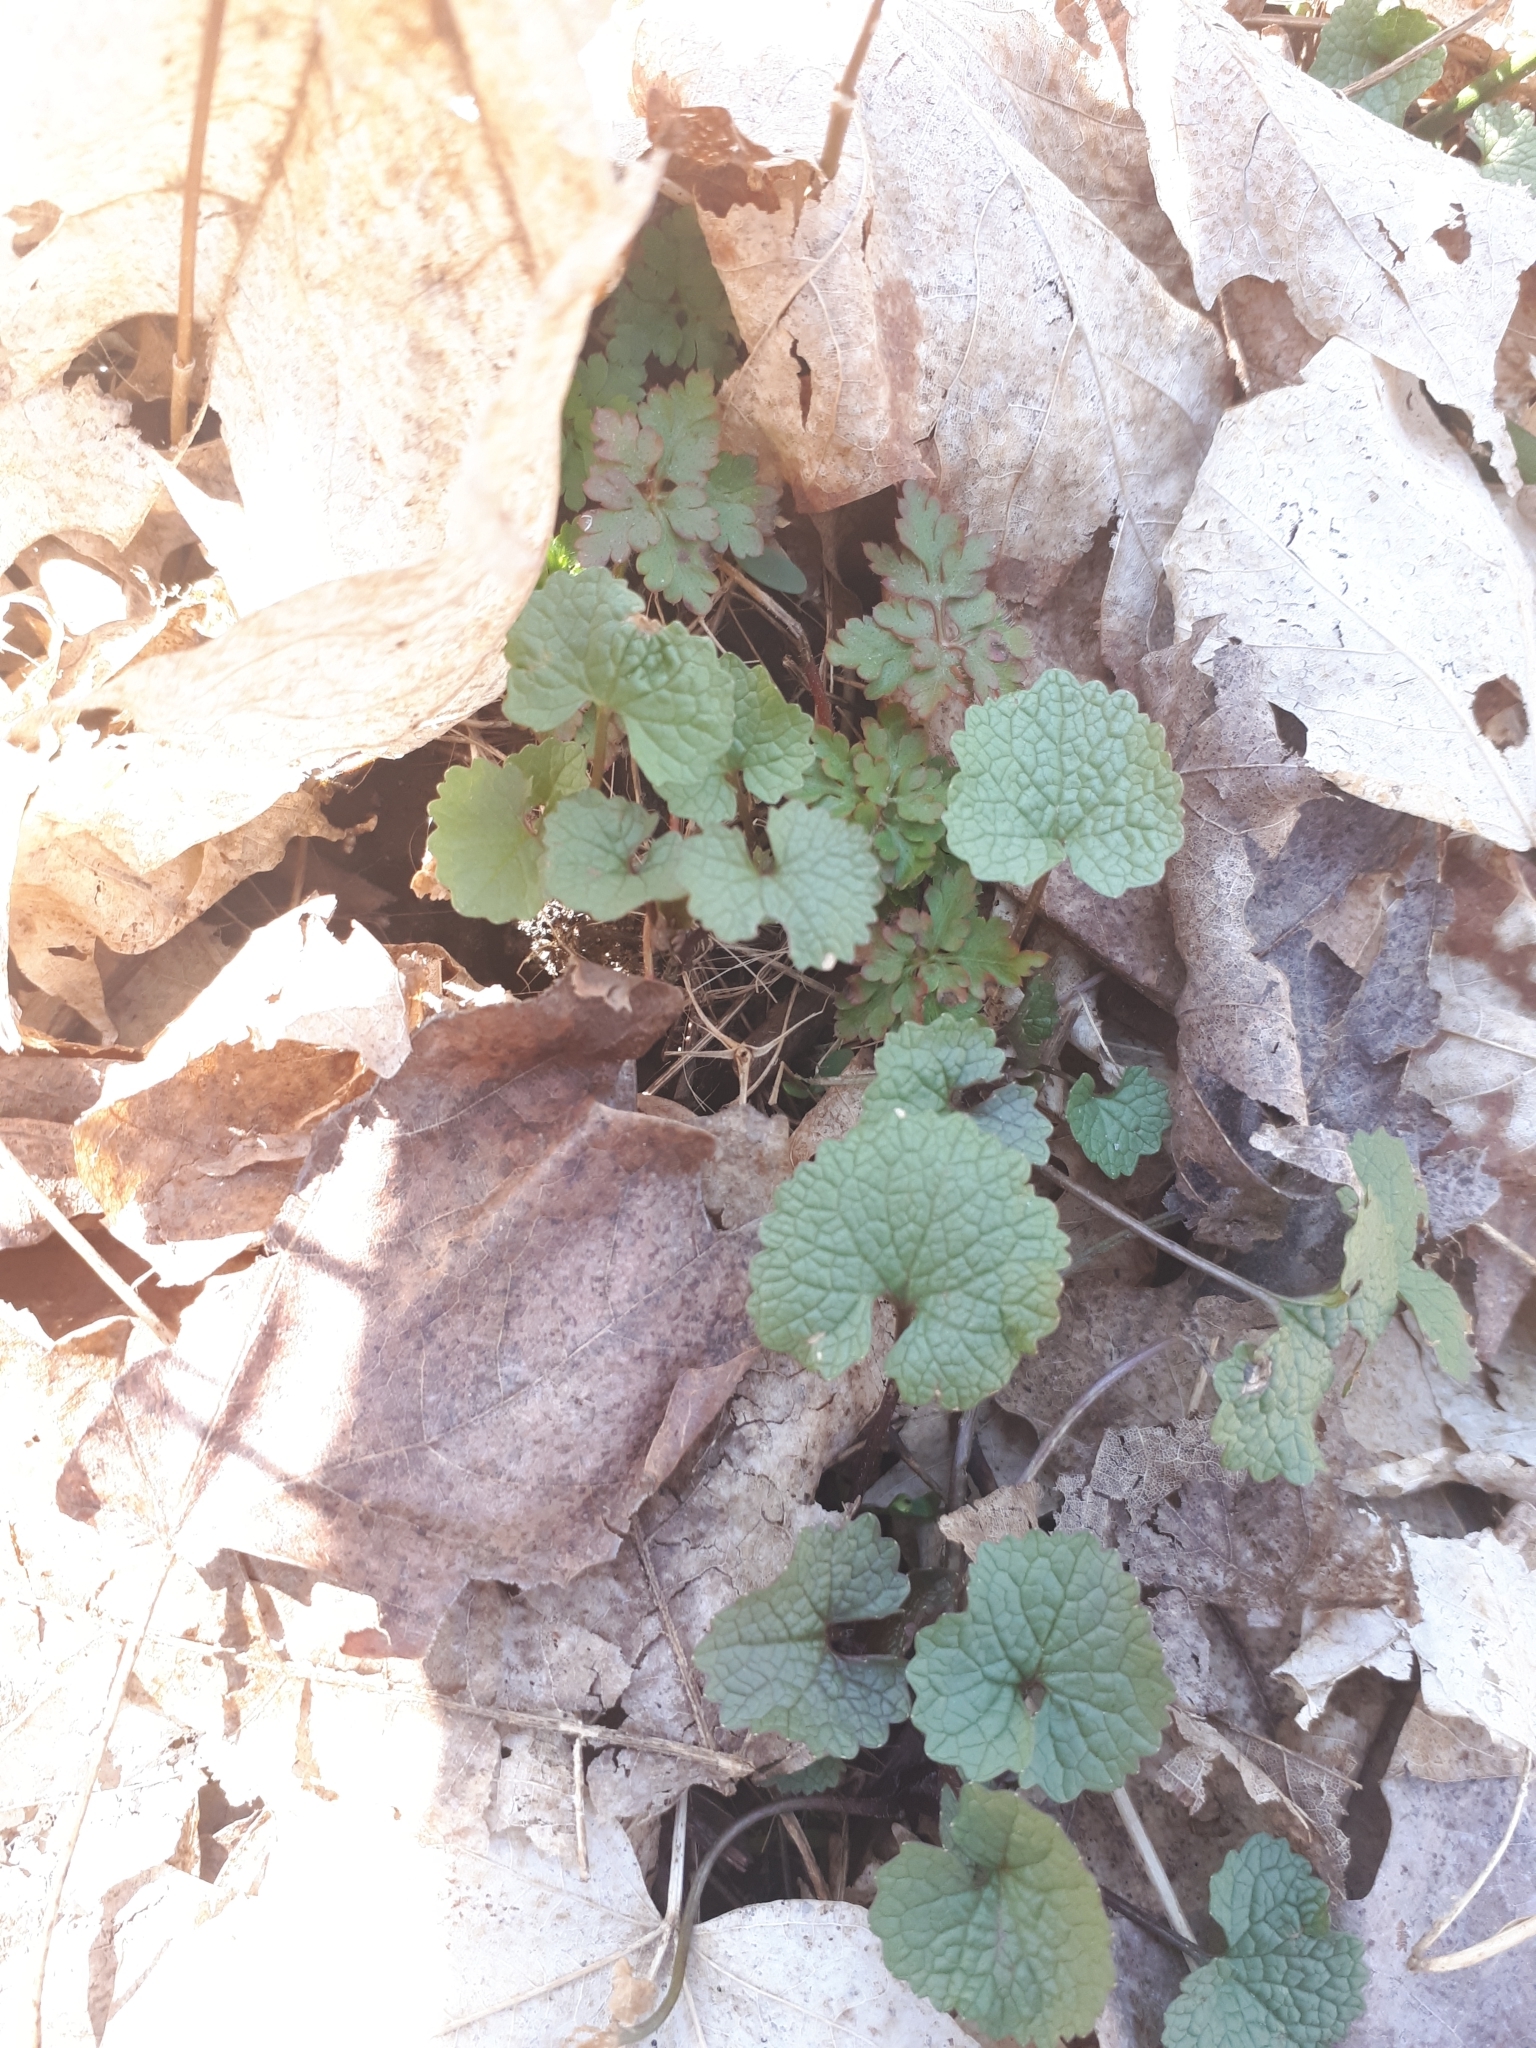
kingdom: Plantae
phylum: Tracheophyta
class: Magnoliopsida
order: Brassicales
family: Brassicaceae
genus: Alliaria
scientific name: Alliaria petiolata
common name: Garlic mustard
